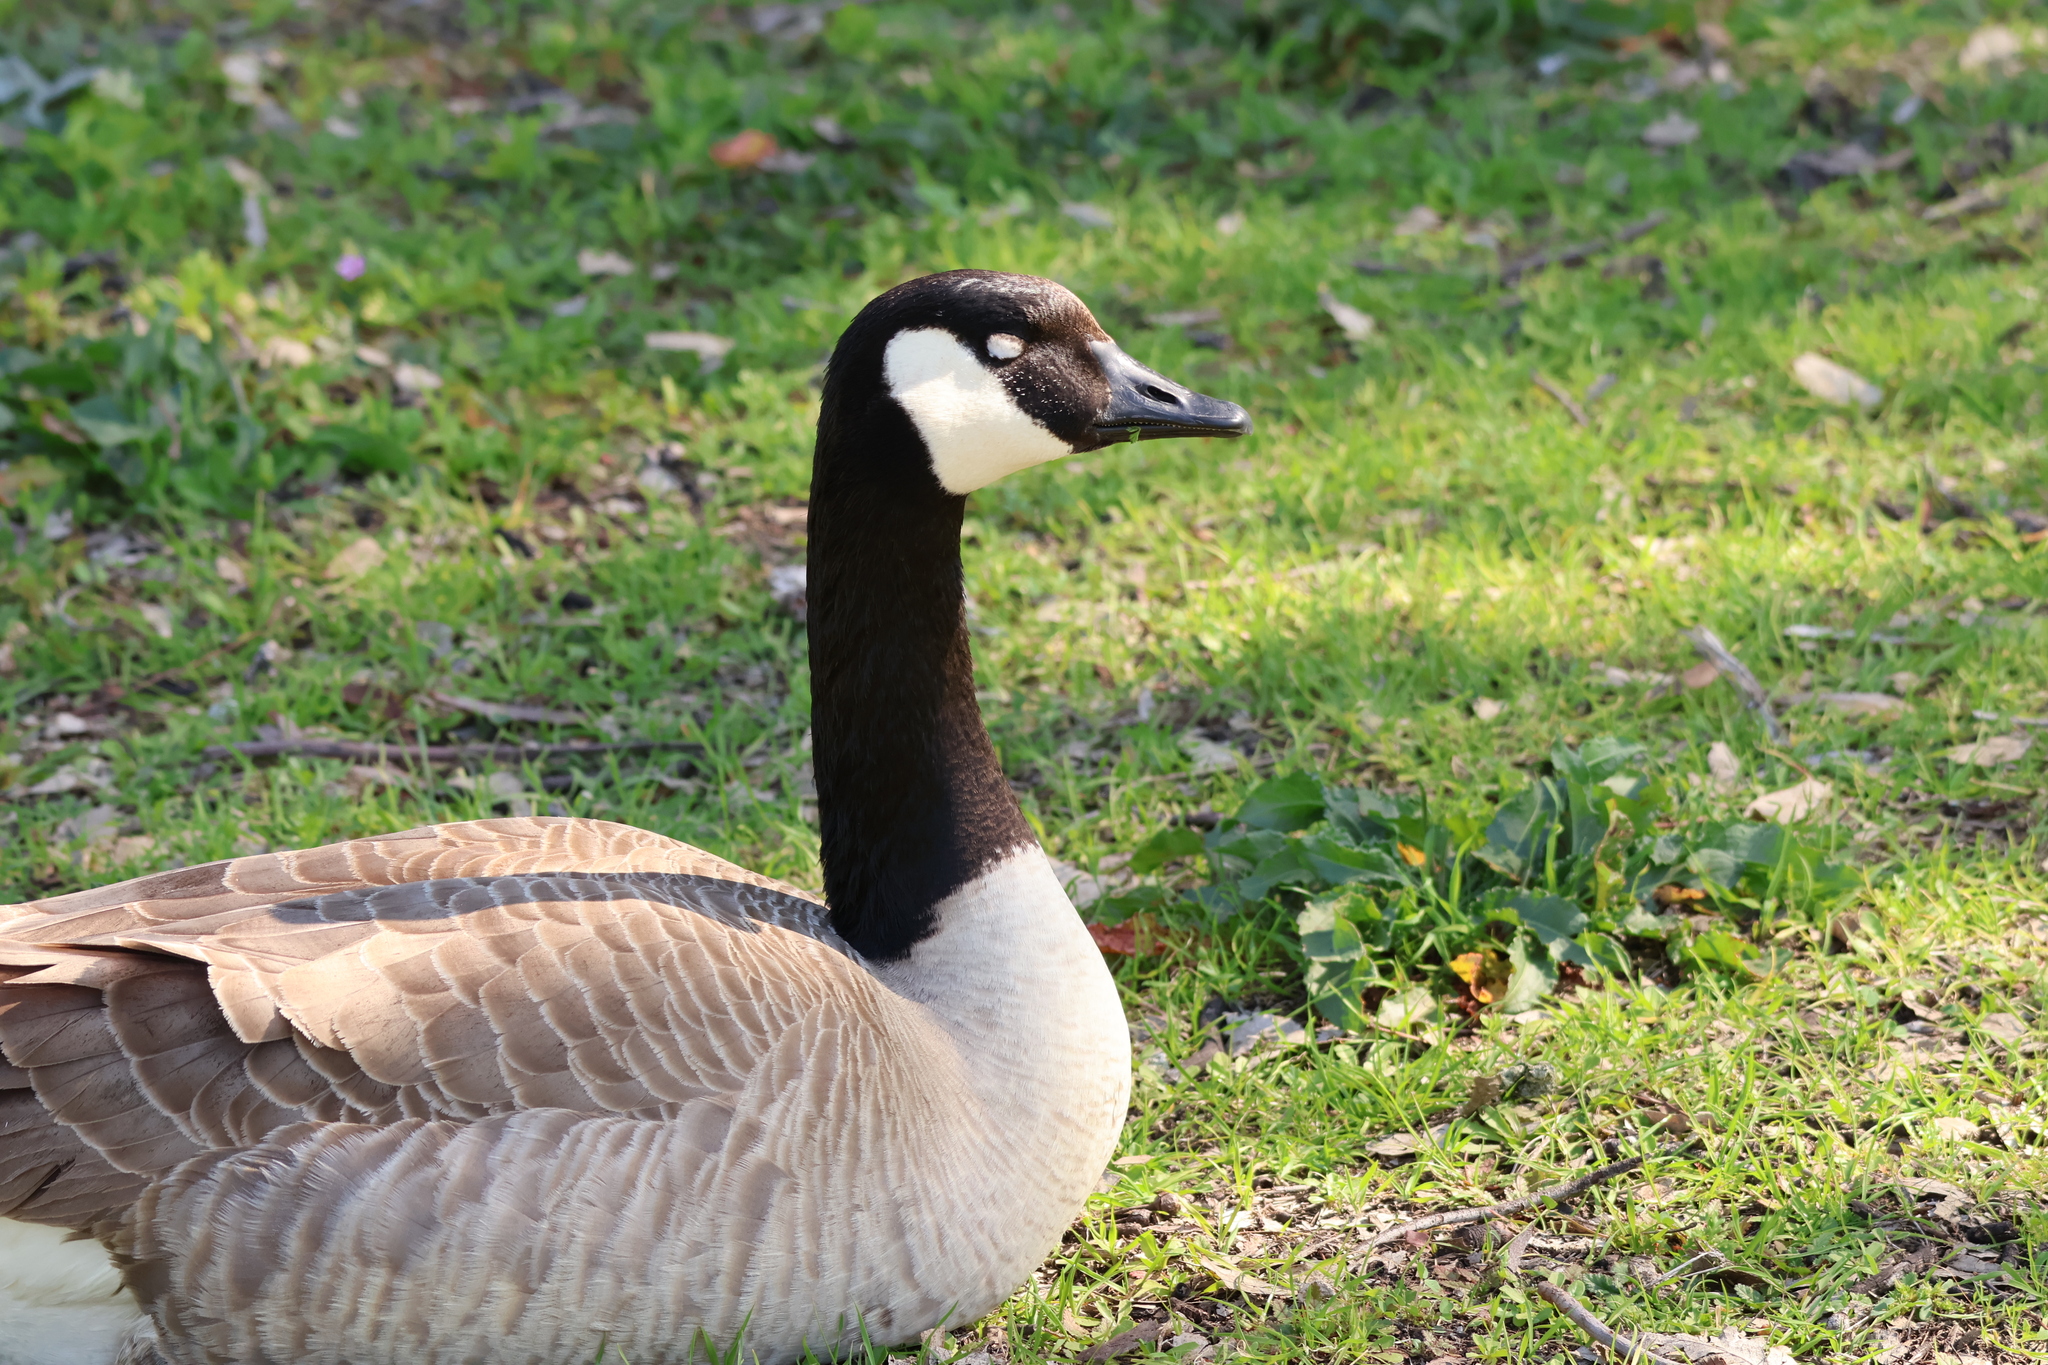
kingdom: Animalia
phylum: Chordata
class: Aves
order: Anseriformes
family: Anatidae
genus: Branta
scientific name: Branta canadensis
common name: Canada goose
